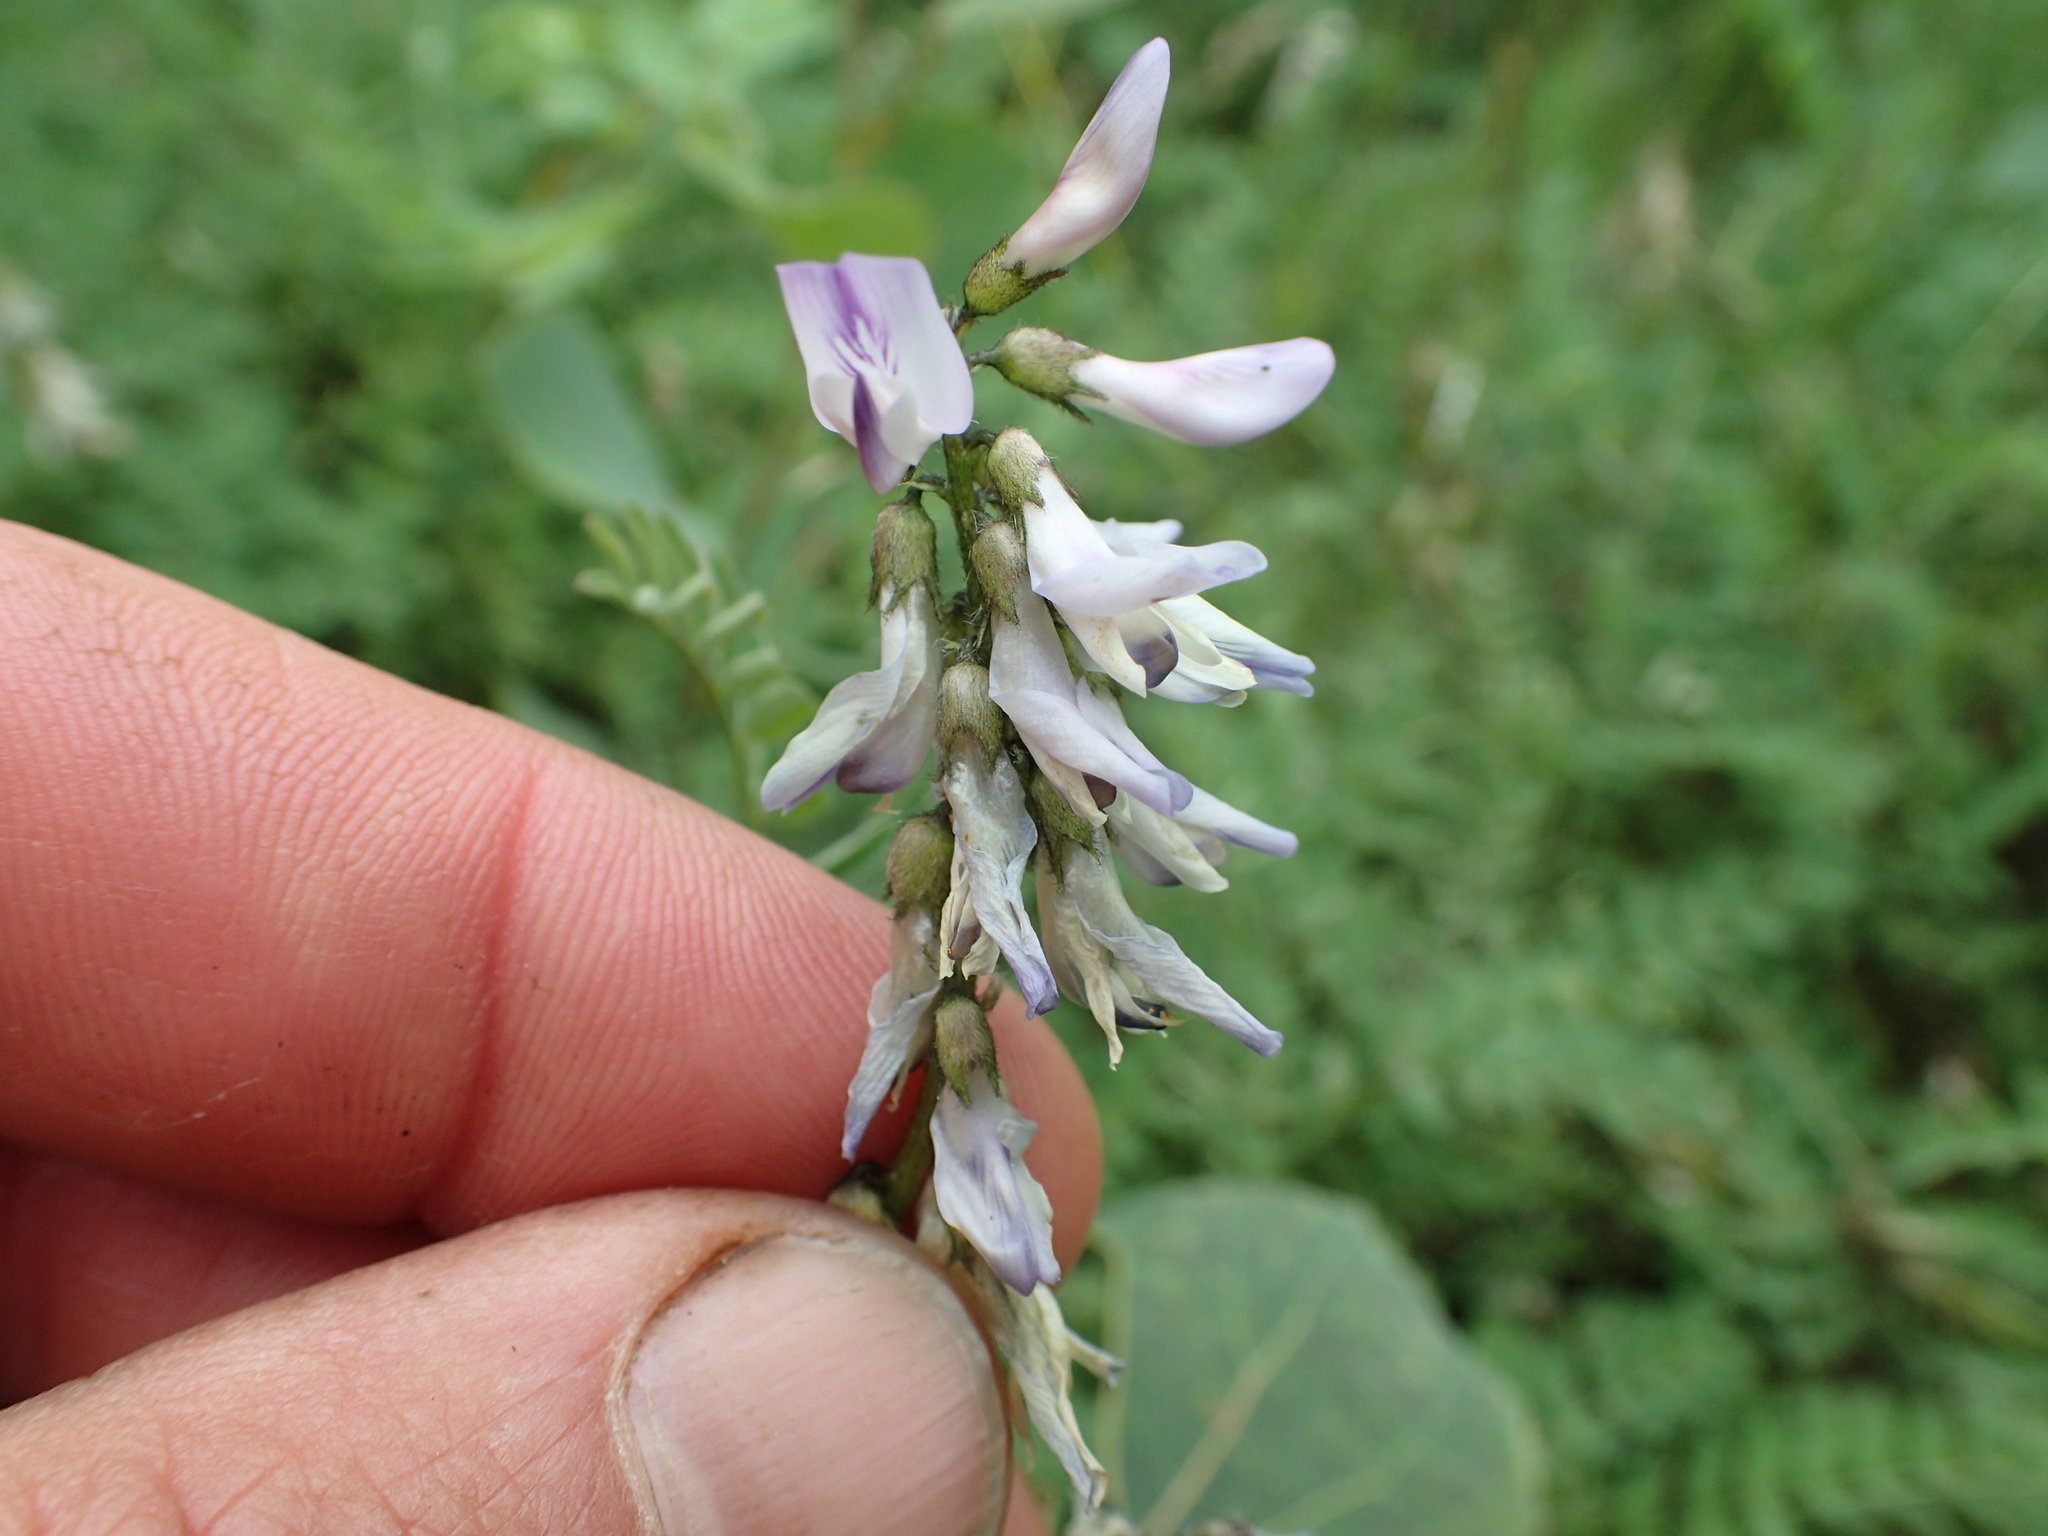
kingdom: Plantae
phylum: Tracheophyta
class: Magnoliopsida
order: Fabales
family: Fabaceae
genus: Astragalus
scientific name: Astragalus alpinus
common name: Alpine milk-vetch
